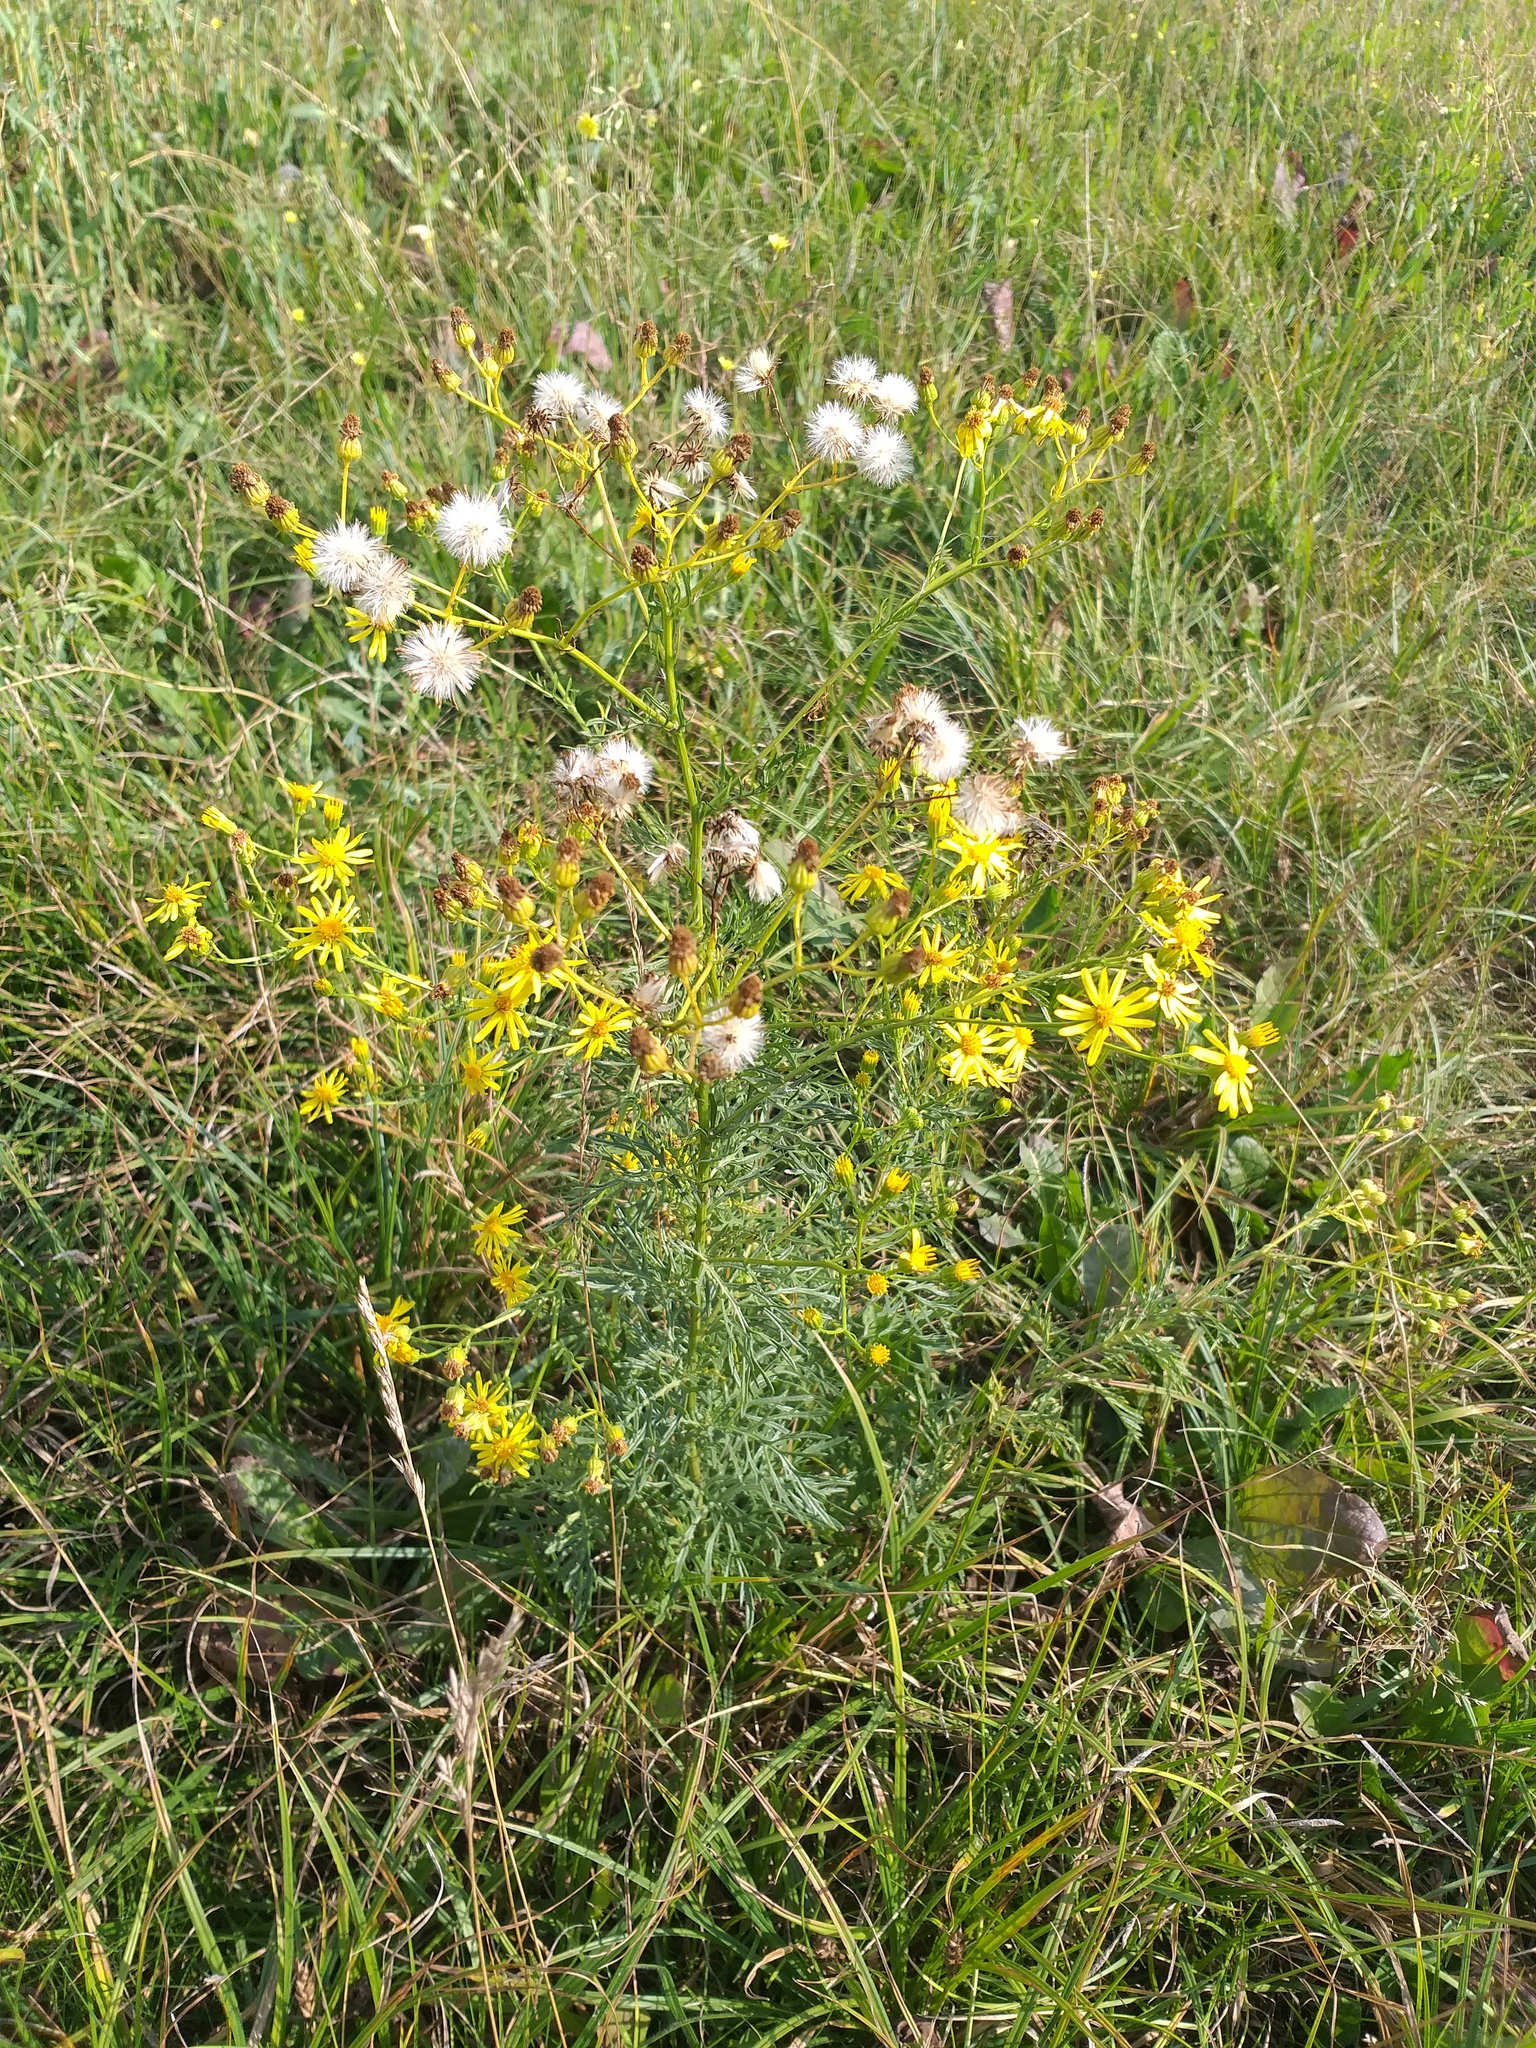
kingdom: Plantae
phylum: Tracheophyta
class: Magnoliopsida
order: Asterales
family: Asteraceae
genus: Jacobaea
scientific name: Jacobaea erucifolia
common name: Hoary ragwort
